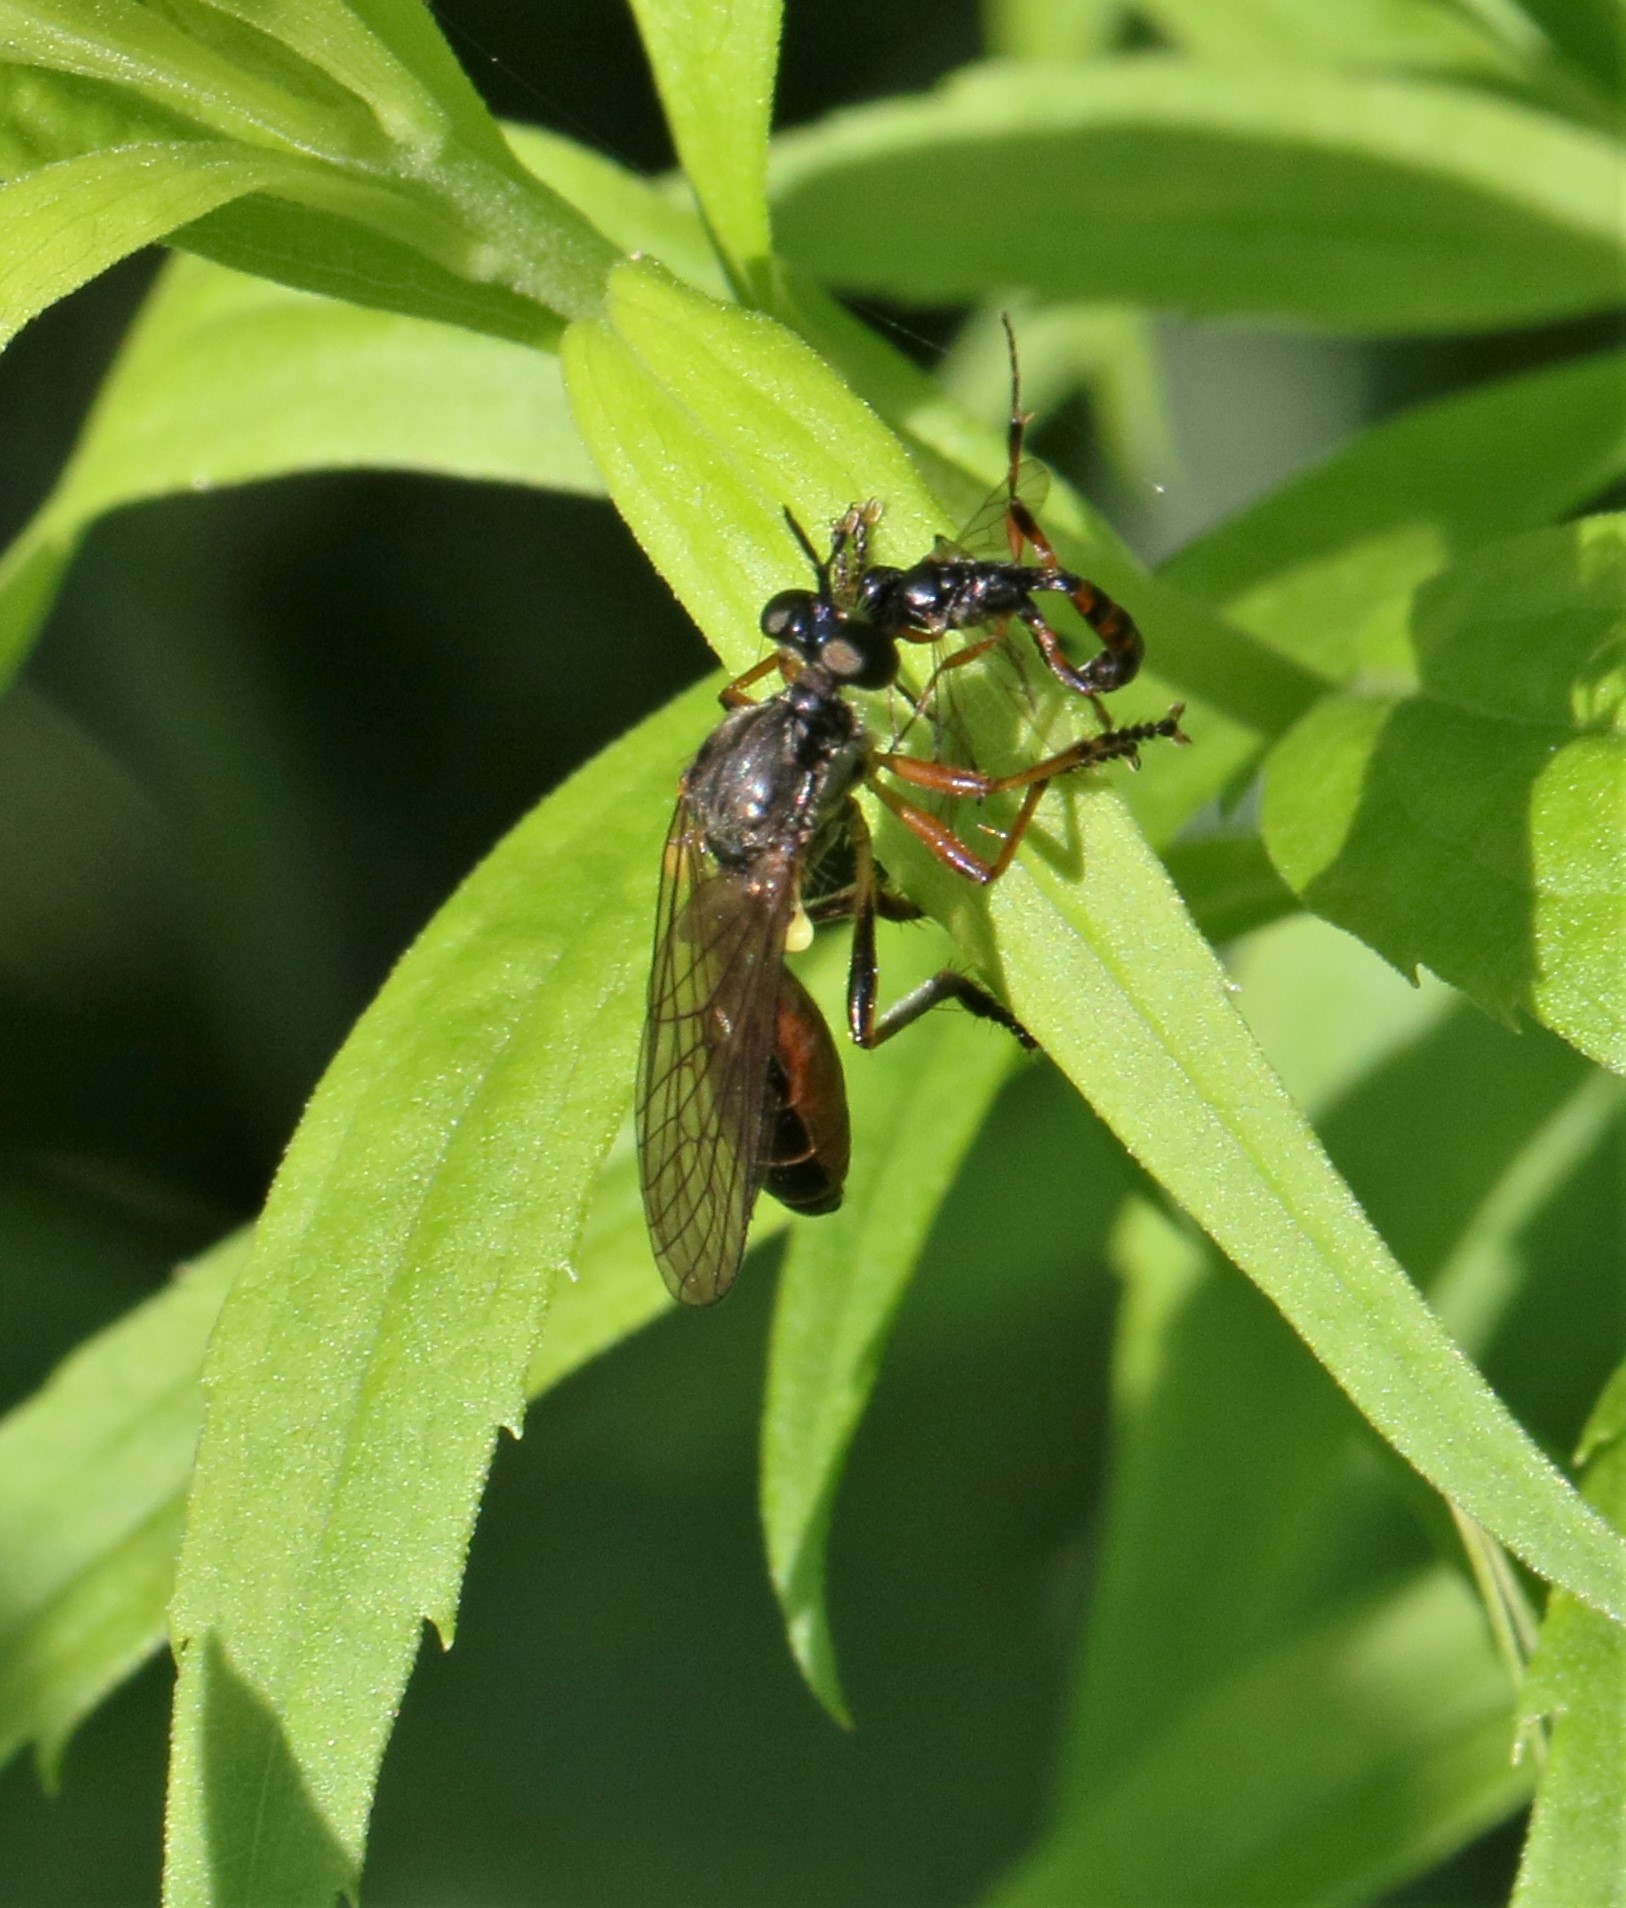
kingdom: Animalia
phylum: Arthropoda
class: Insecta
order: Diptera
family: Asilidae
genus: Dioctria
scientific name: Dioctria hyalipennis
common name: Stripe-legged robberfly
